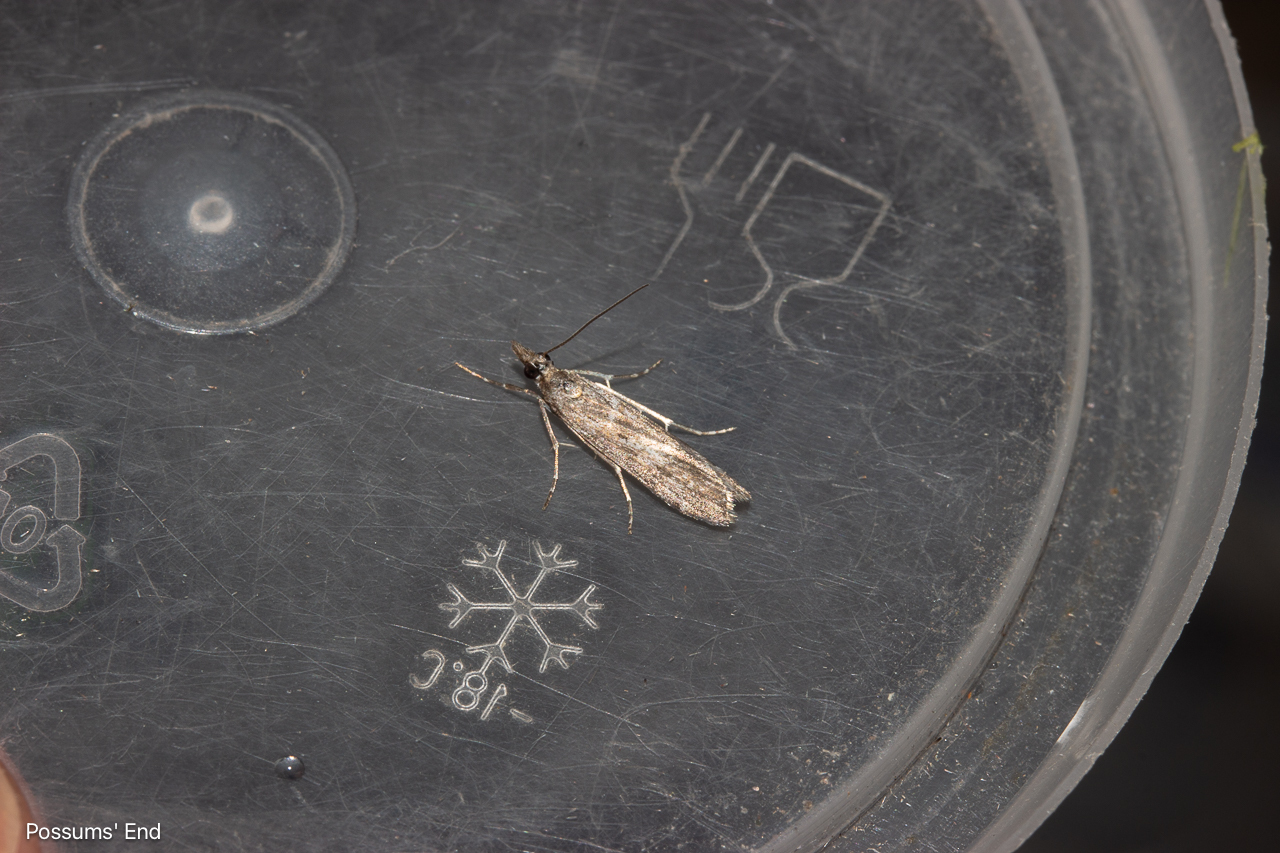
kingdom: Animalia
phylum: Arthropoda
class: Insecta
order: Lepidoptera
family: Crambidae
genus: Eudonia
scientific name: Eudonia leptalea
